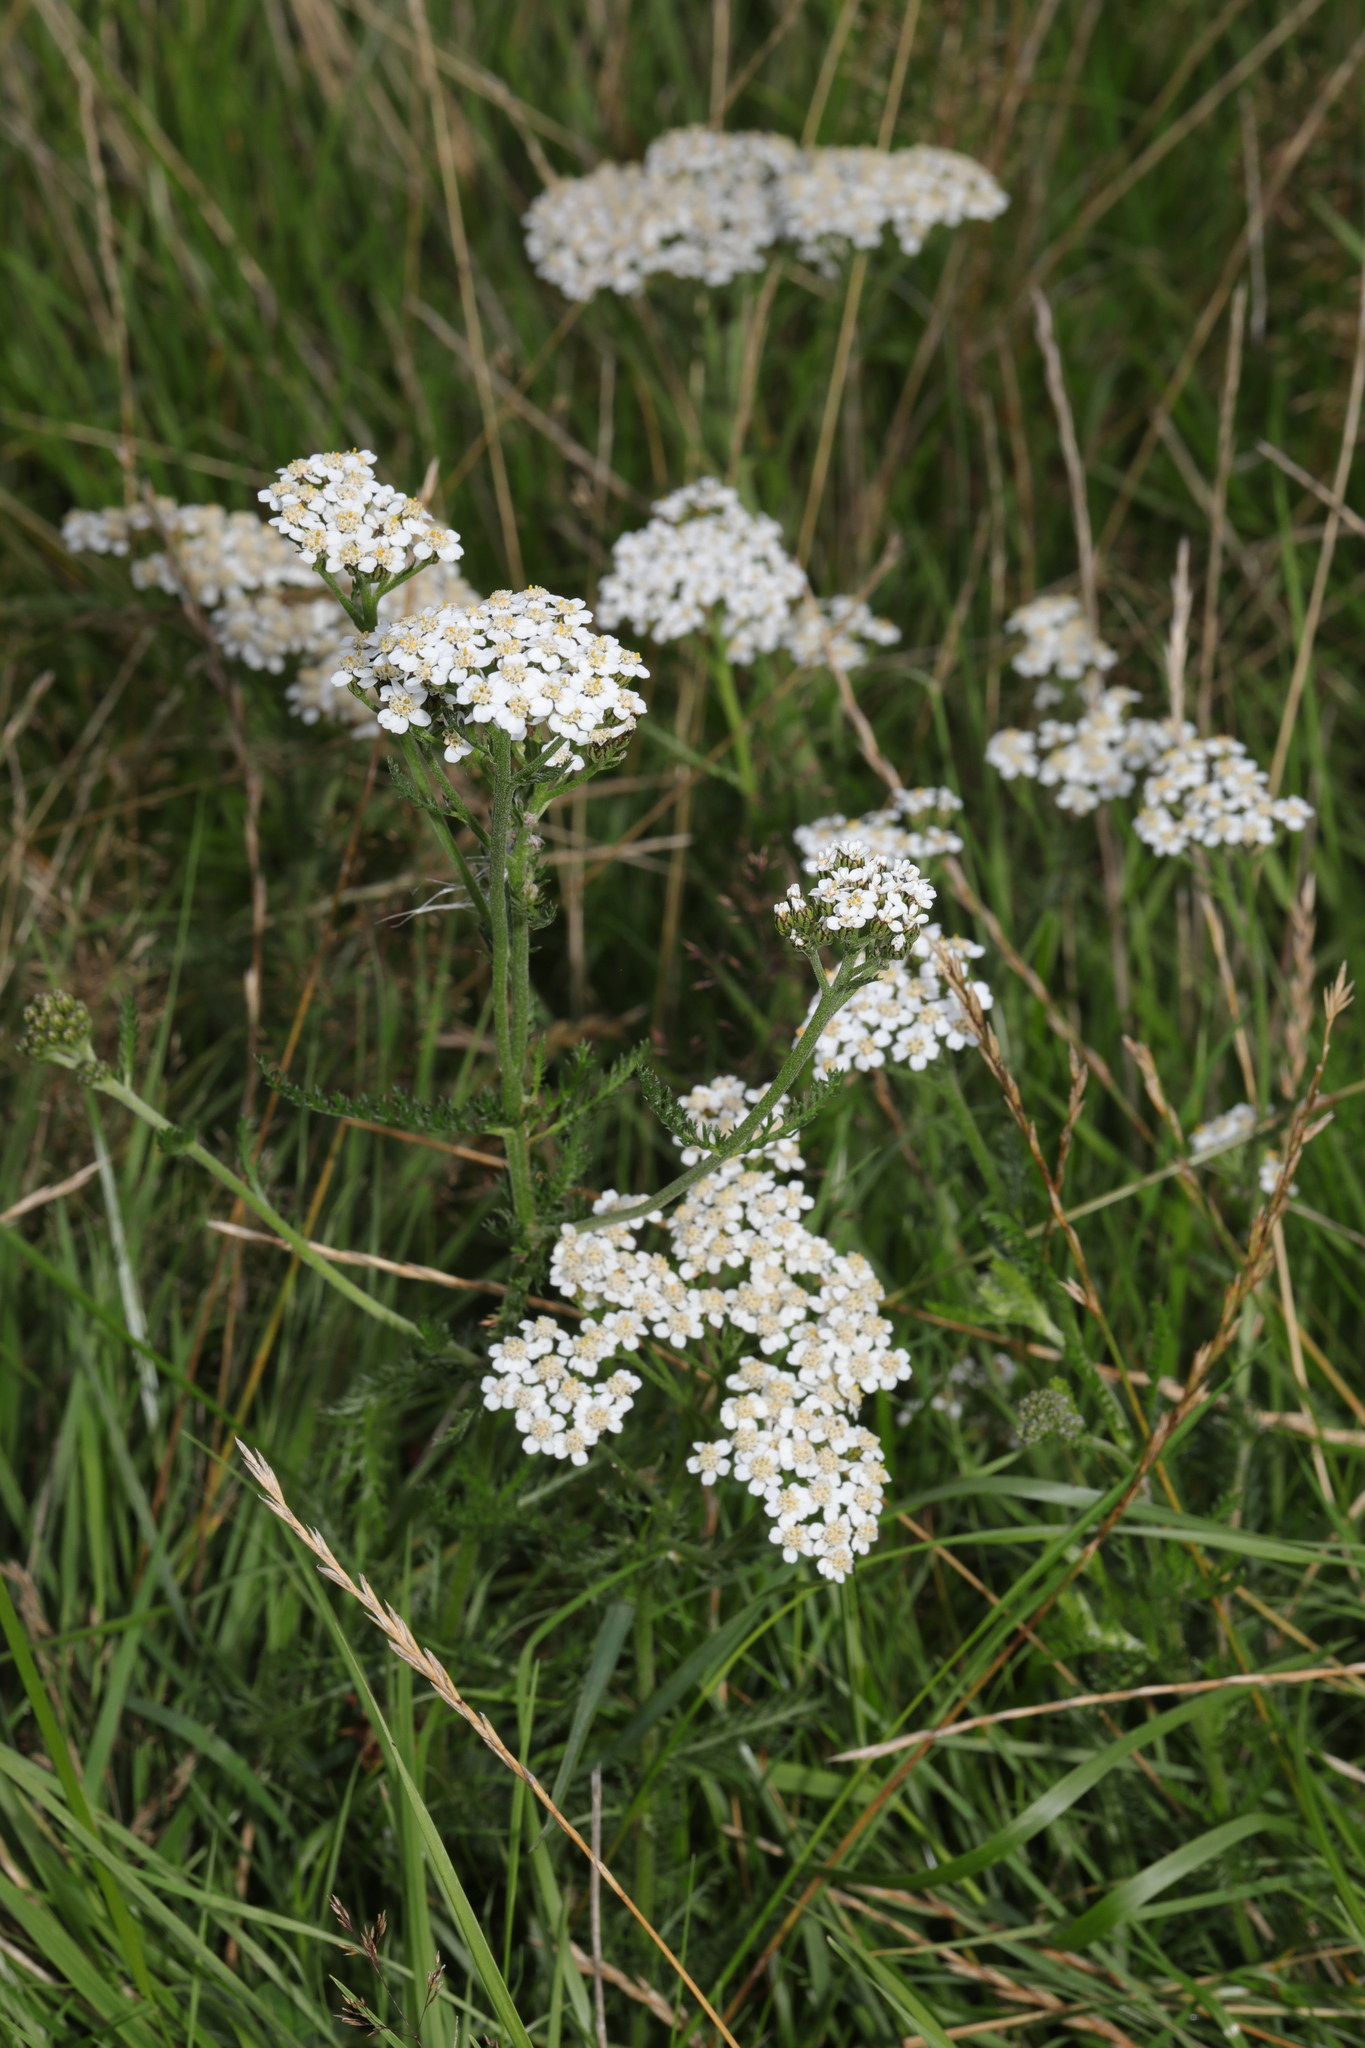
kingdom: Plantae
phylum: Tracheophyta
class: Magnoliopsida
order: Asterales
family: Asteraceae
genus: Achillea
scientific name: Achillea millefolium
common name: Yarrow
